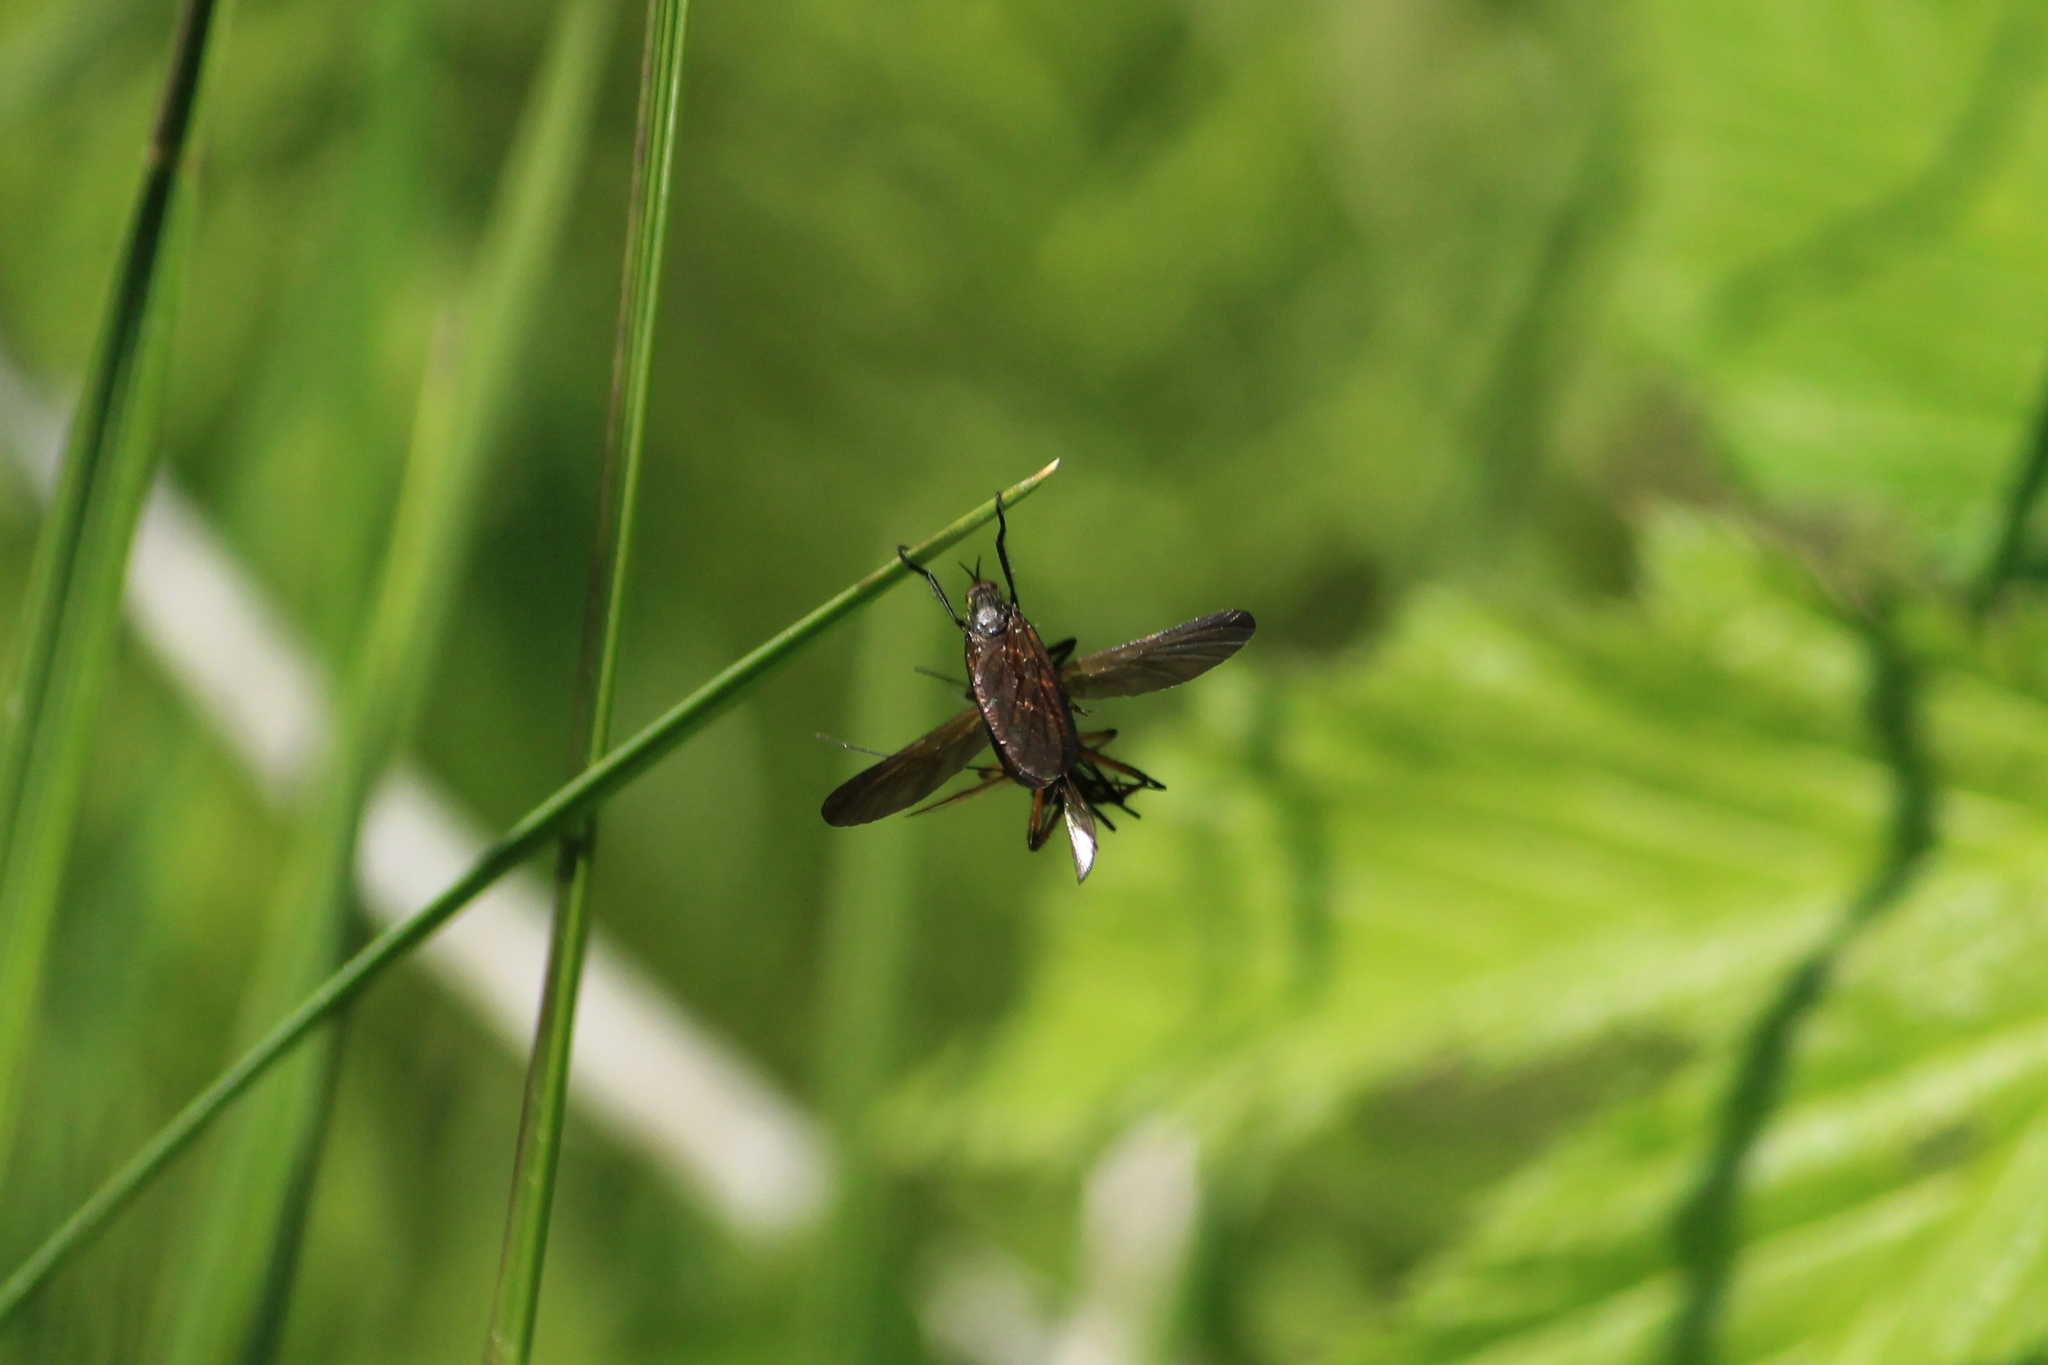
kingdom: Animalia
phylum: Arthropoda
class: Insecta
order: Diptera
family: Empididae
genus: Empis
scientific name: Empis borealis
